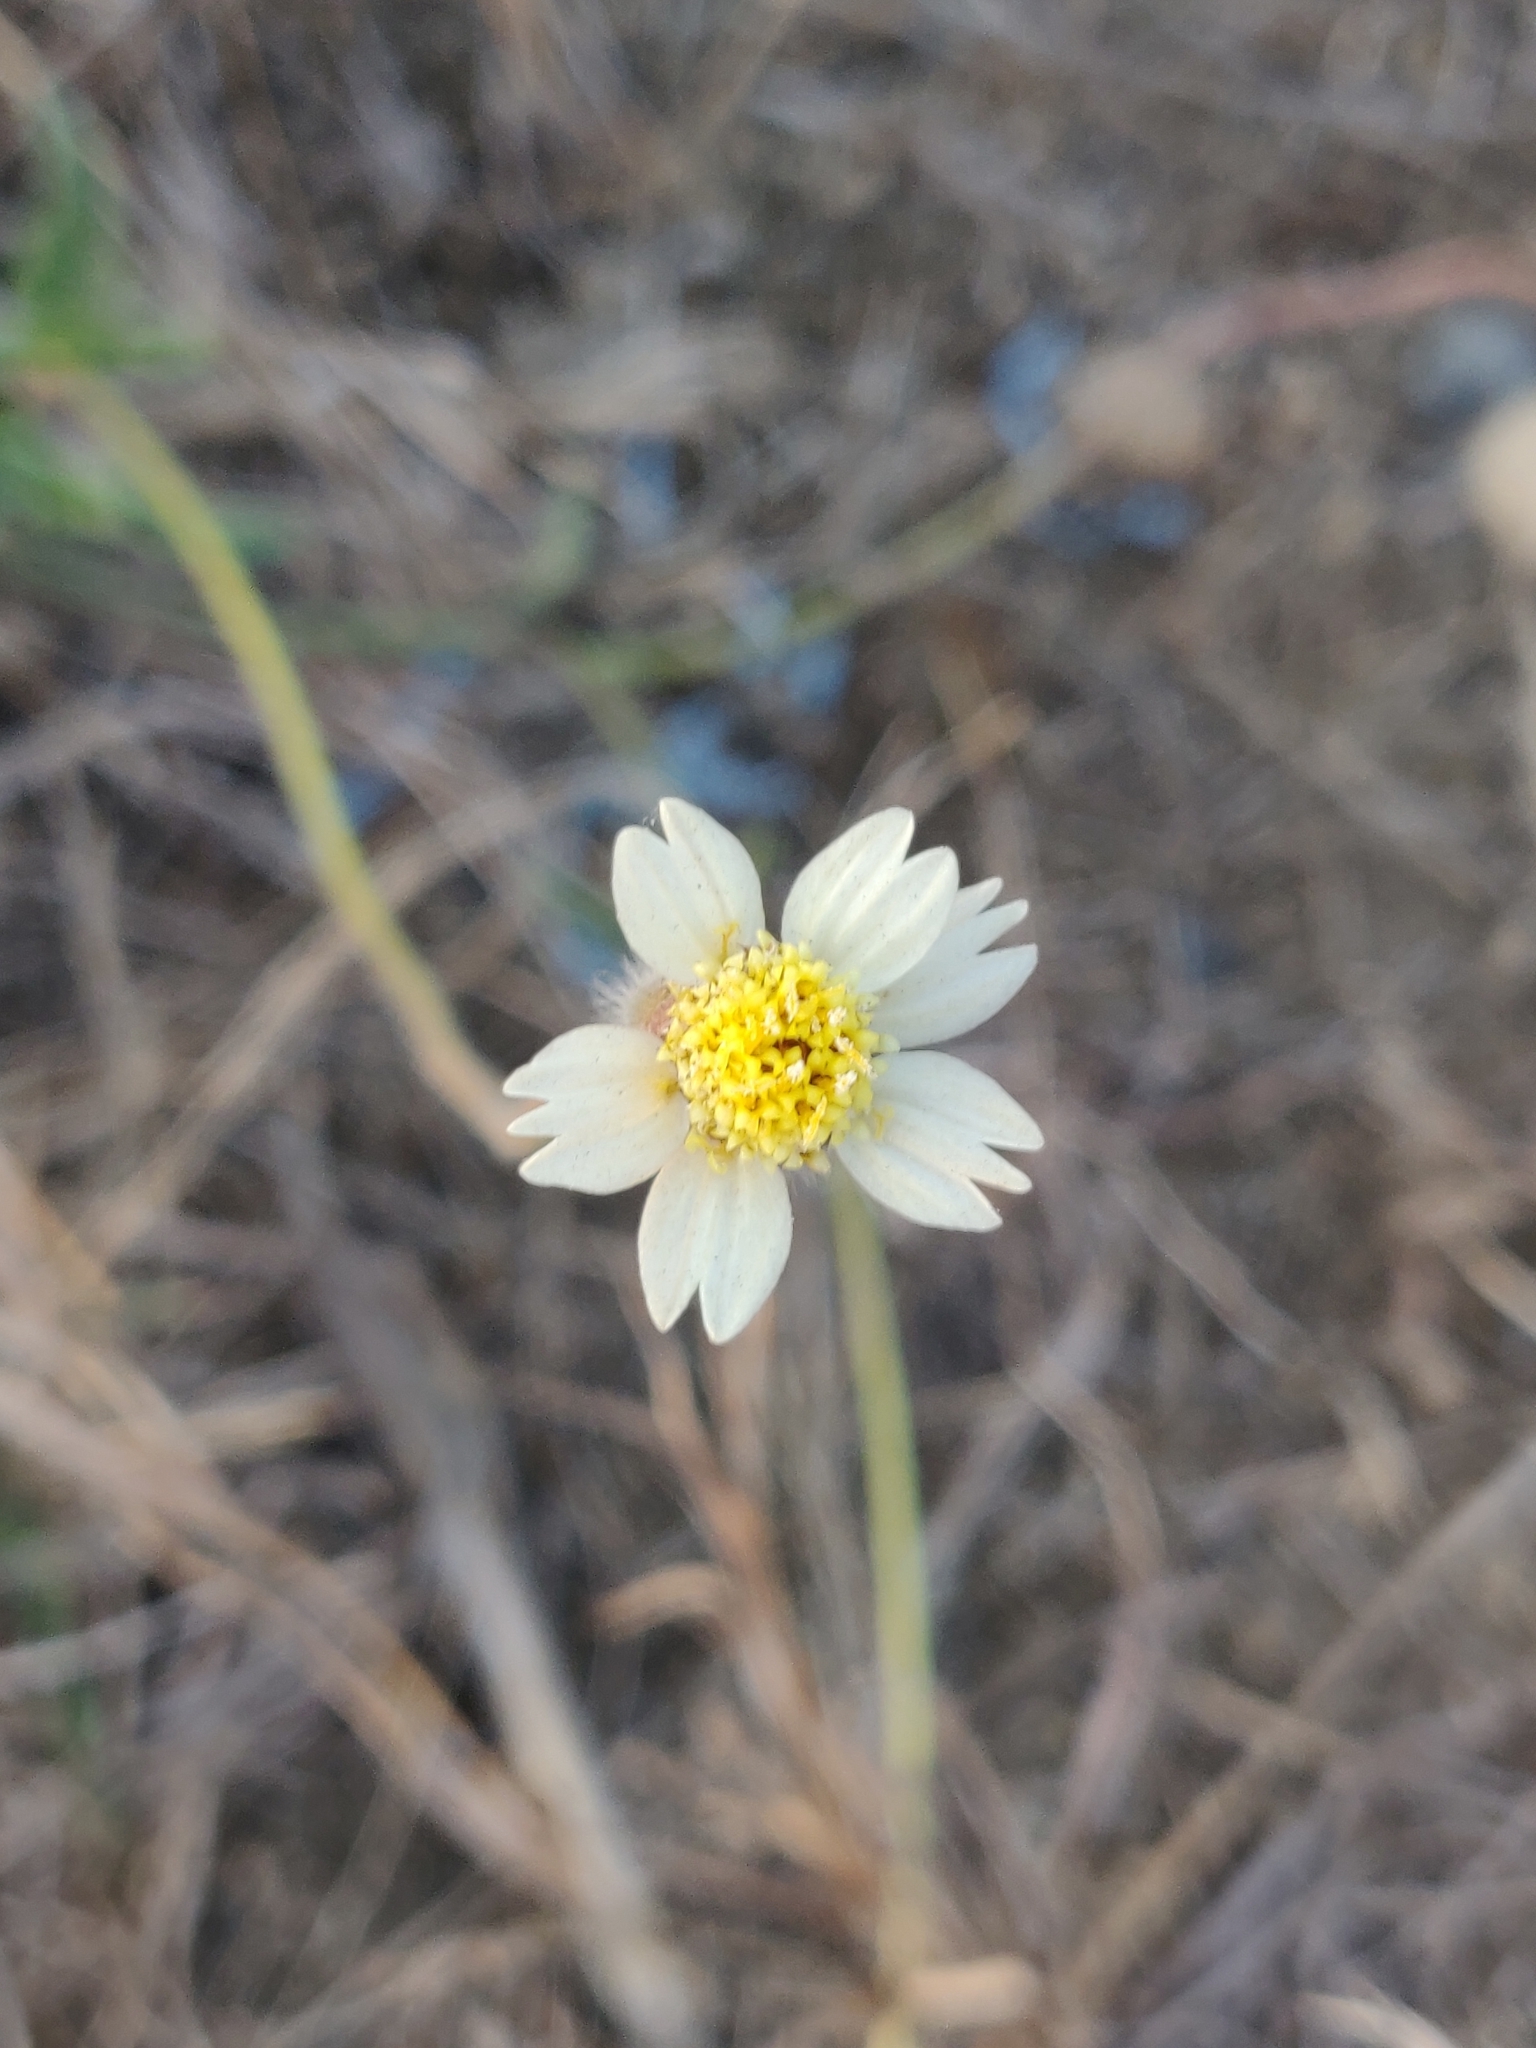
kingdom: Plantae
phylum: Tracheophyta
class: Magnoliopsida
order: Asterales
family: Asteraceae
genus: Tridax
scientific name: Tridax procumbens
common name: Coatbuttons
